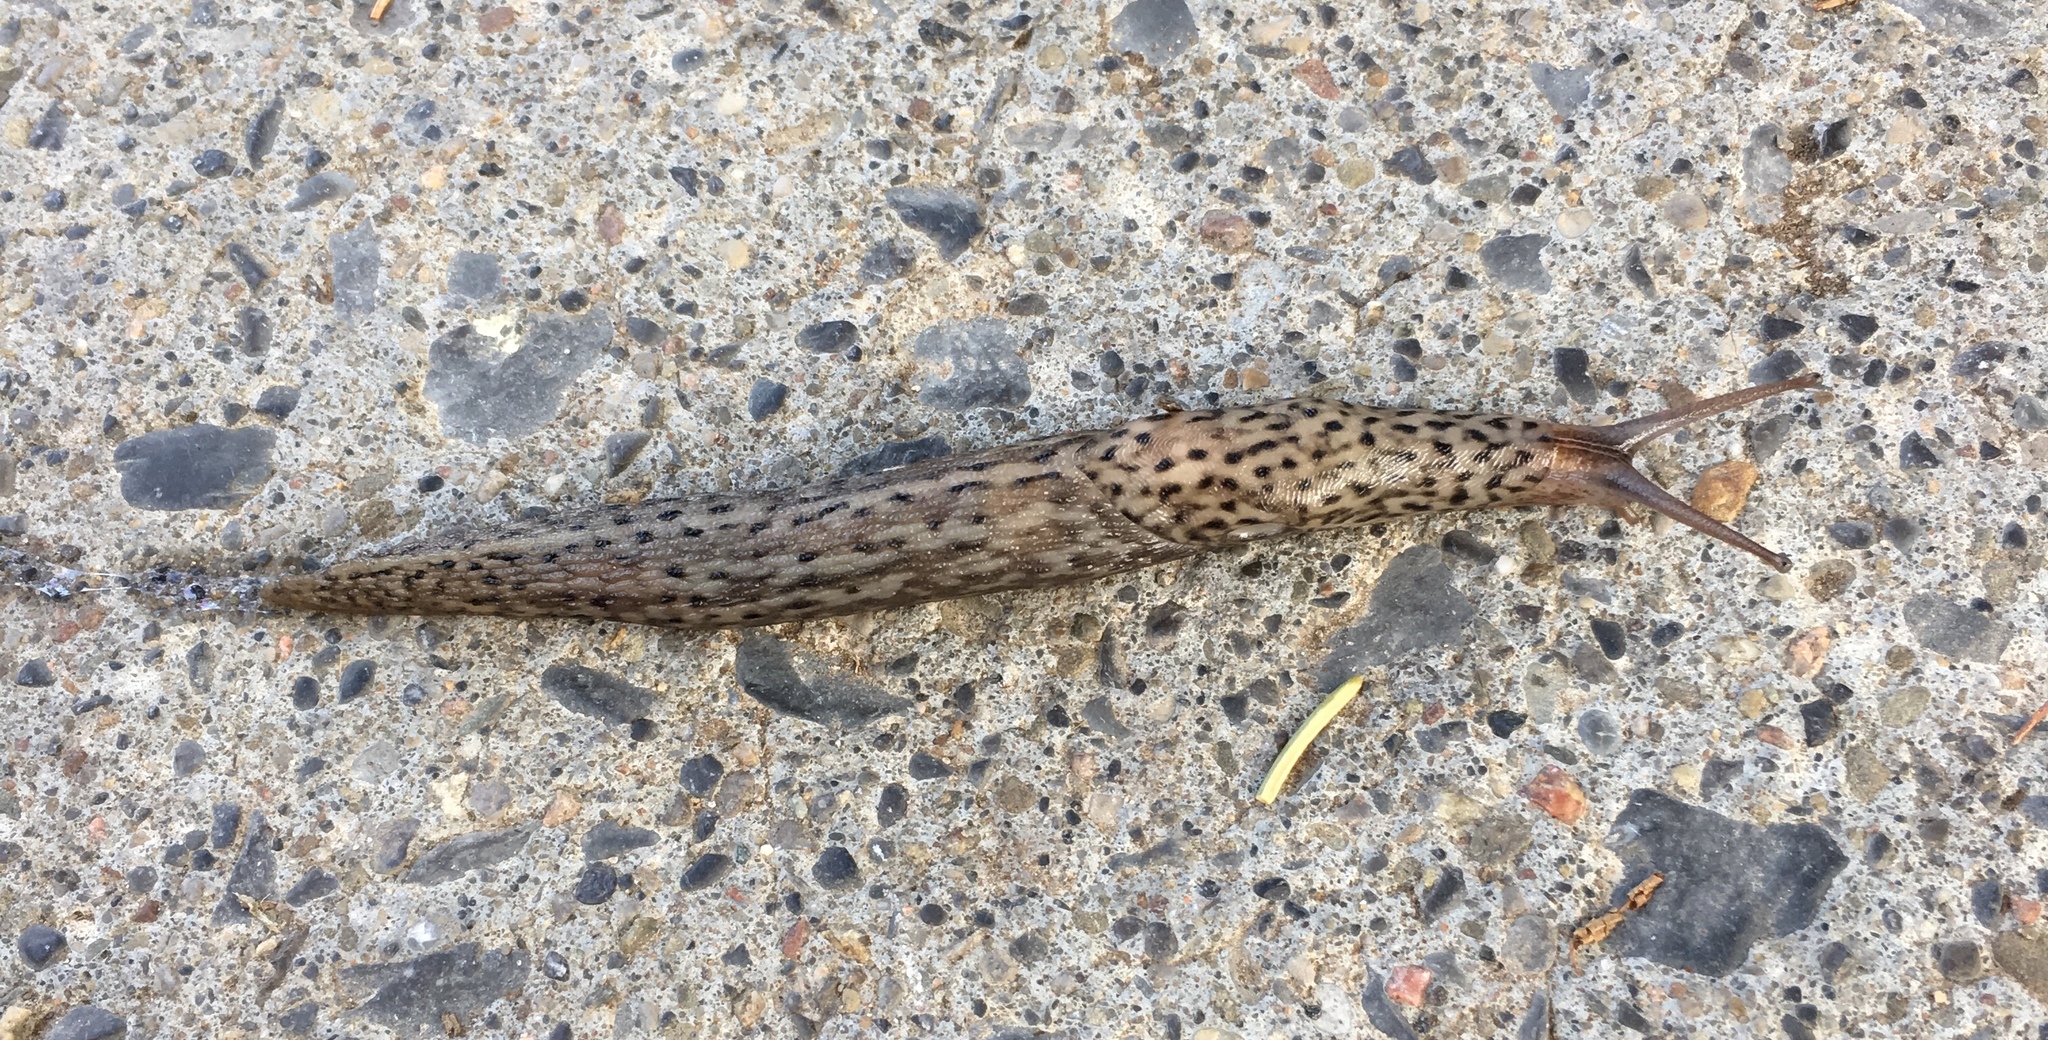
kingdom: Animalia
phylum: Mollusca
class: Gastropoda
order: Stylommatophora
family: Limacidae
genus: Limax
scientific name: Limax maximus
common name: Great grey slug
